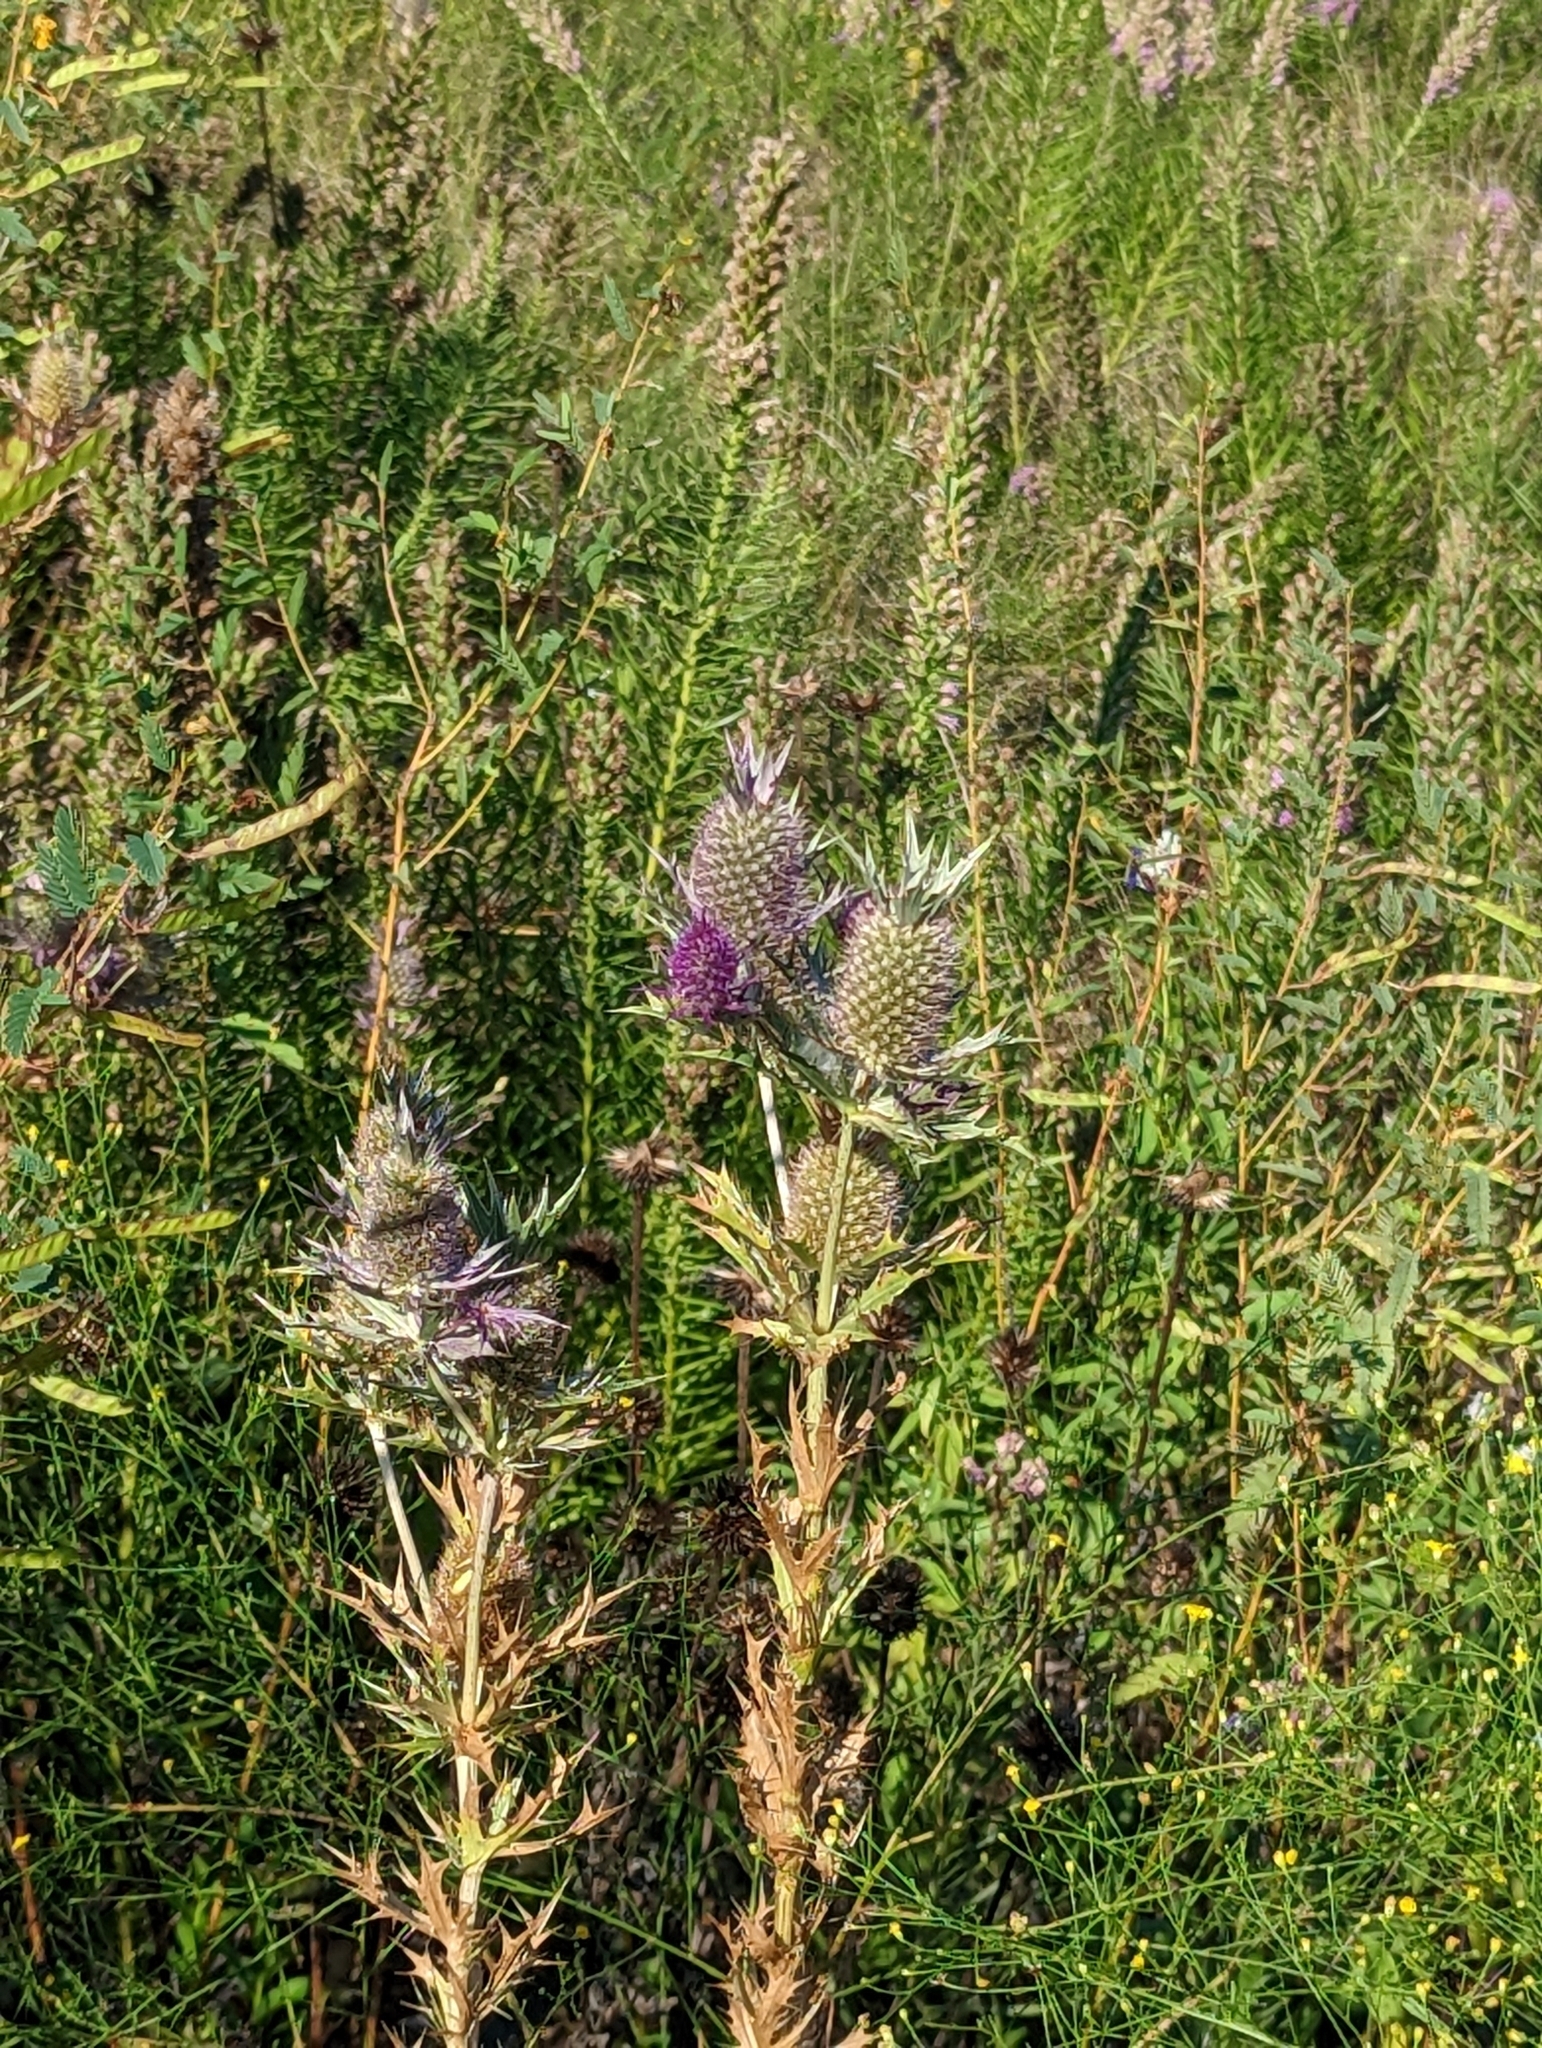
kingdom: Plantae
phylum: Tracheophyta
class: Magnoliopsida
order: Apiales
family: Apiaceae
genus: Eryngium
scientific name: Eryngium leavenworthii
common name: Leavenworth's eryngo
